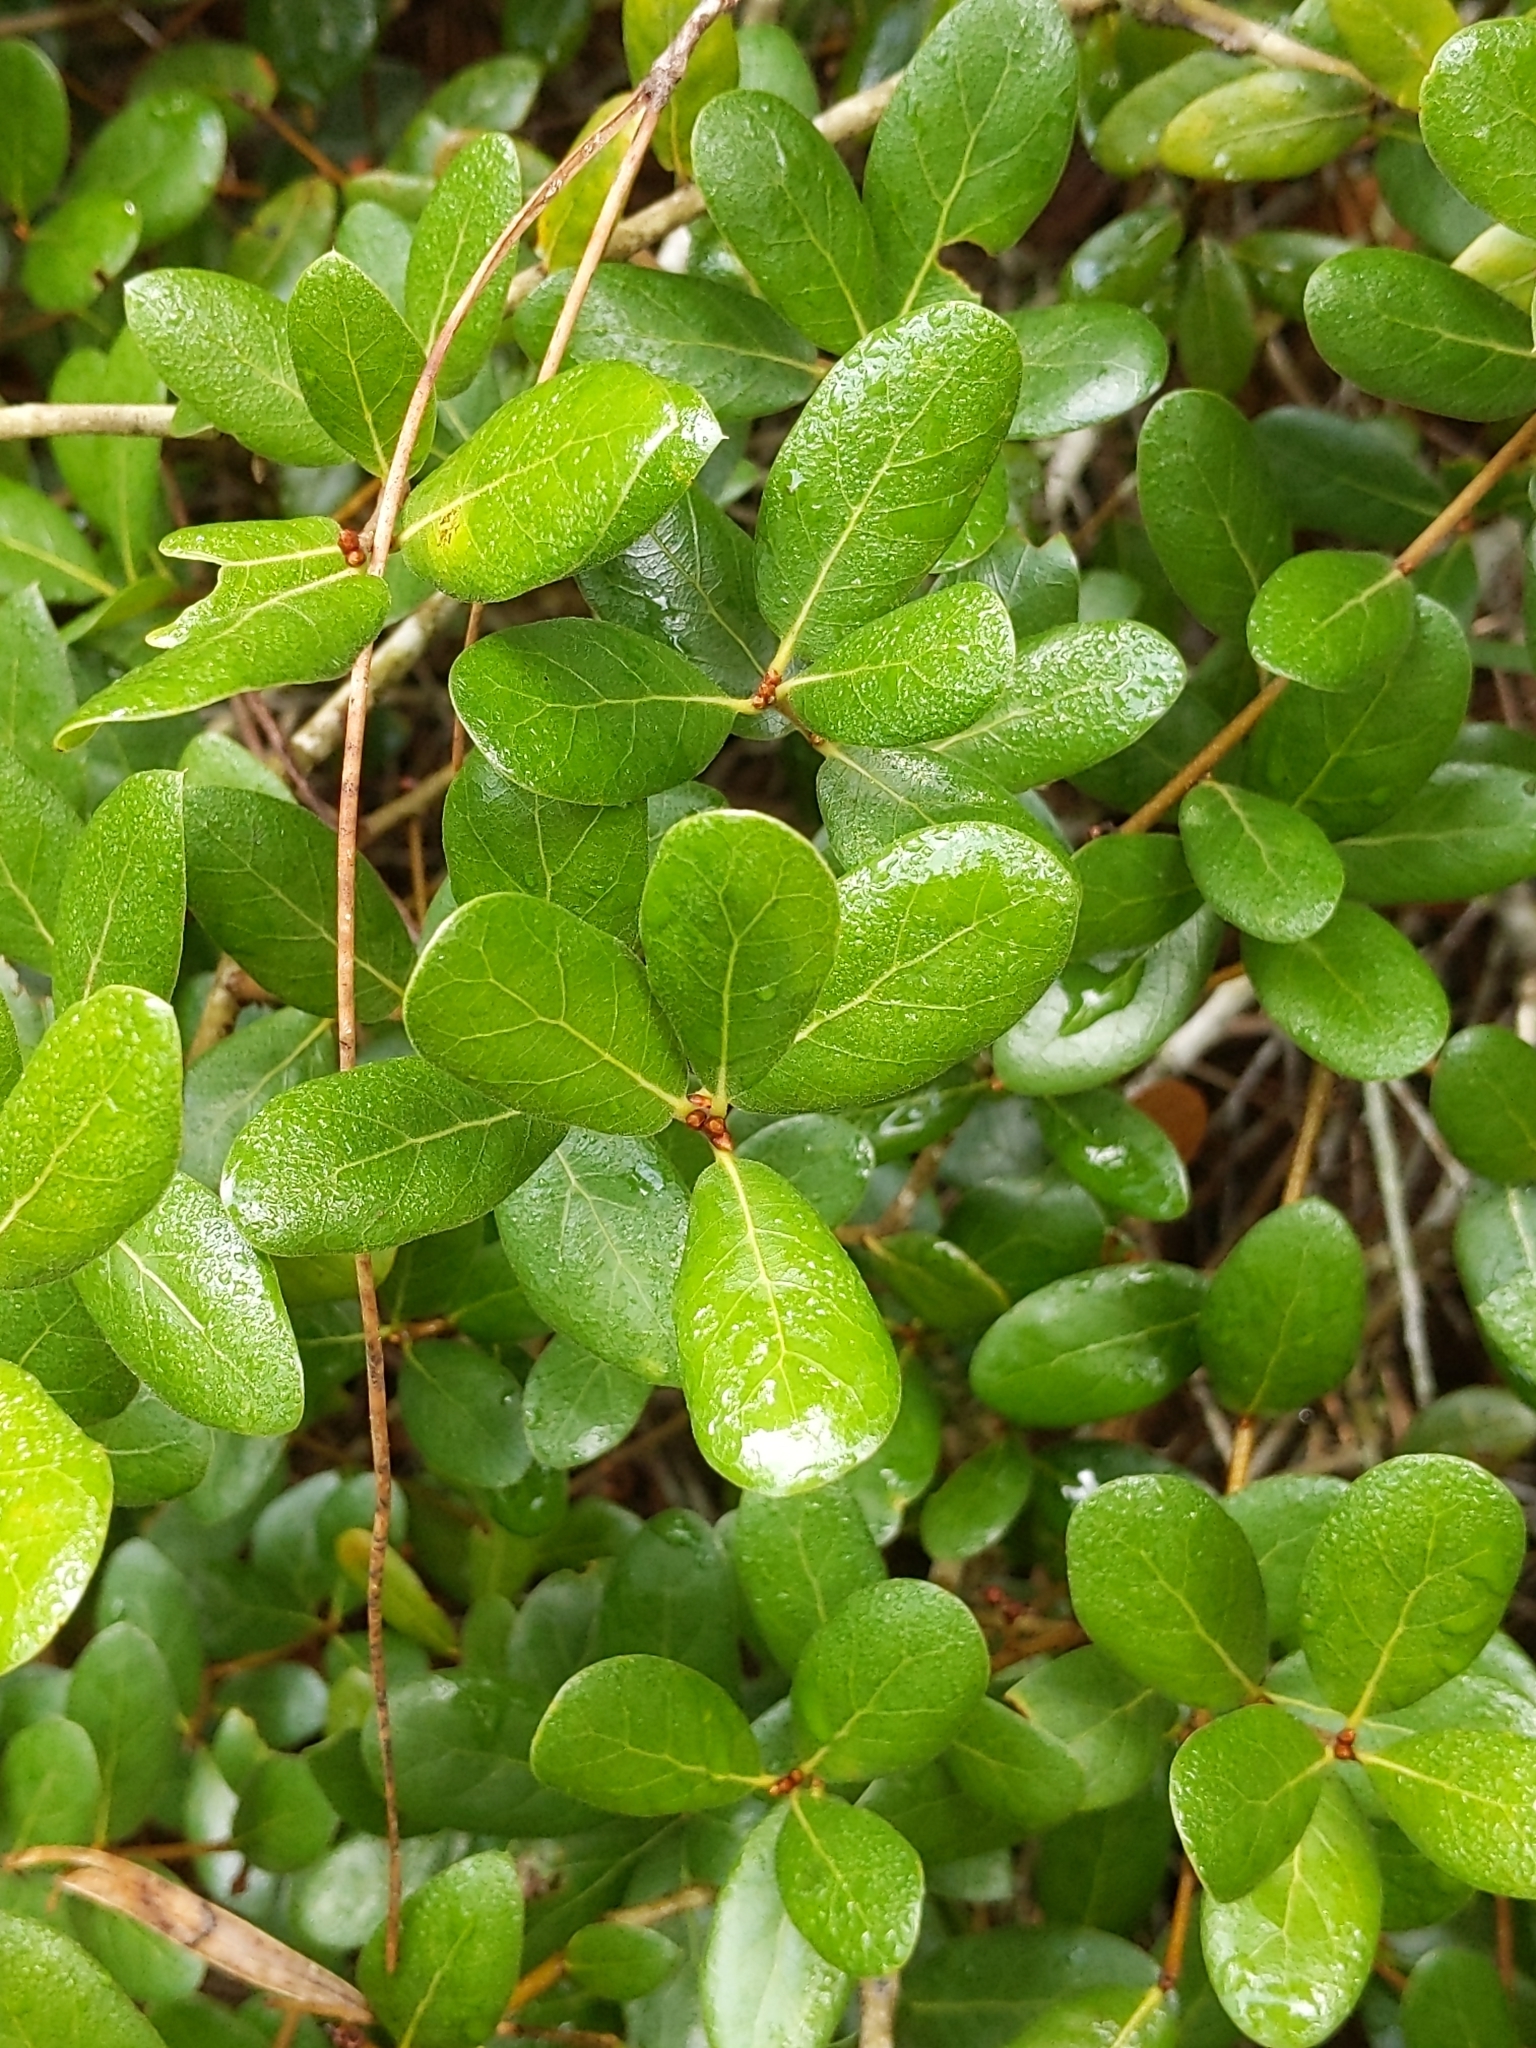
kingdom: Plantae
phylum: Tracheophyta
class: Magnoliopsida
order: Fagales
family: Fagaceae
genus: Quercus
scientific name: Quercus myrtifolia
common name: Myrtle oak
